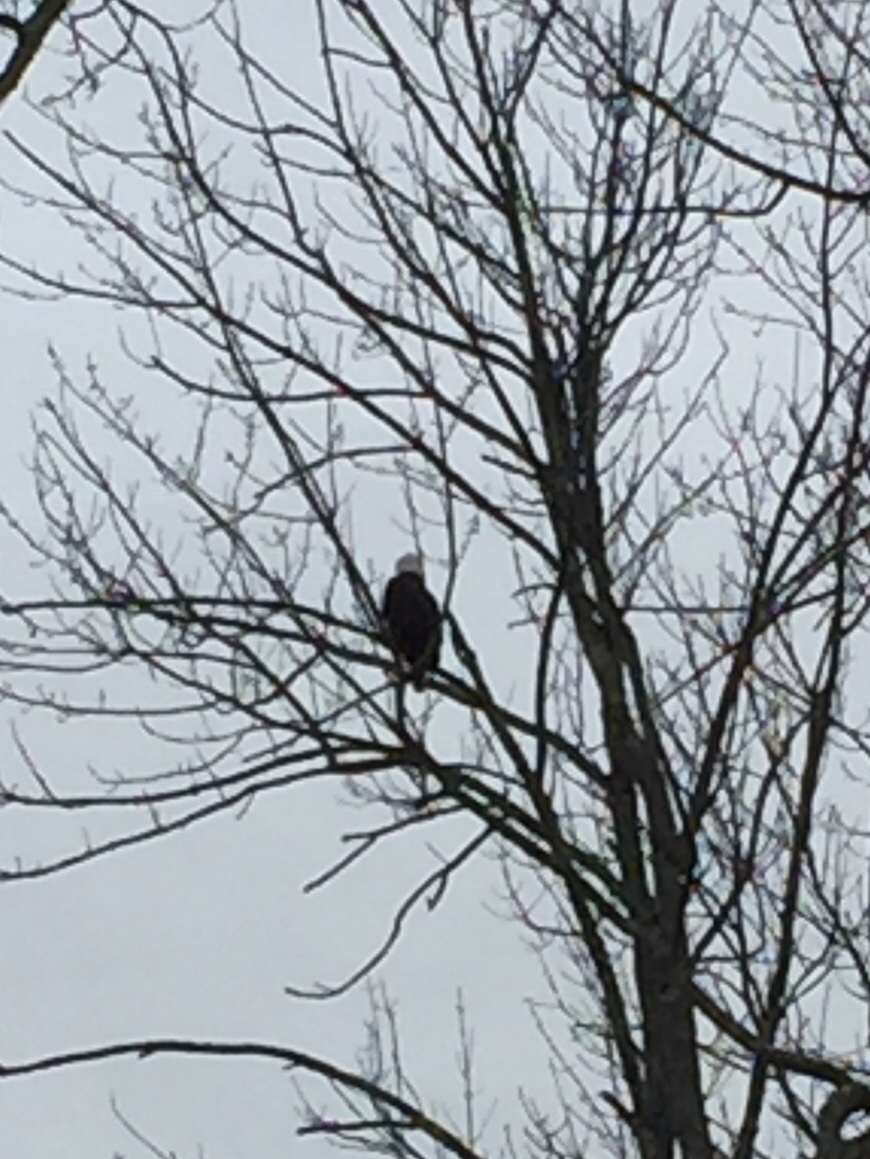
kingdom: Animalia
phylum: Chordata
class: Aves
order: Accipitriformes
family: Accipitridae
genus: Haliaeetus
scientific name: Haliaeetus leucocephalus
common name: Bald eagle
